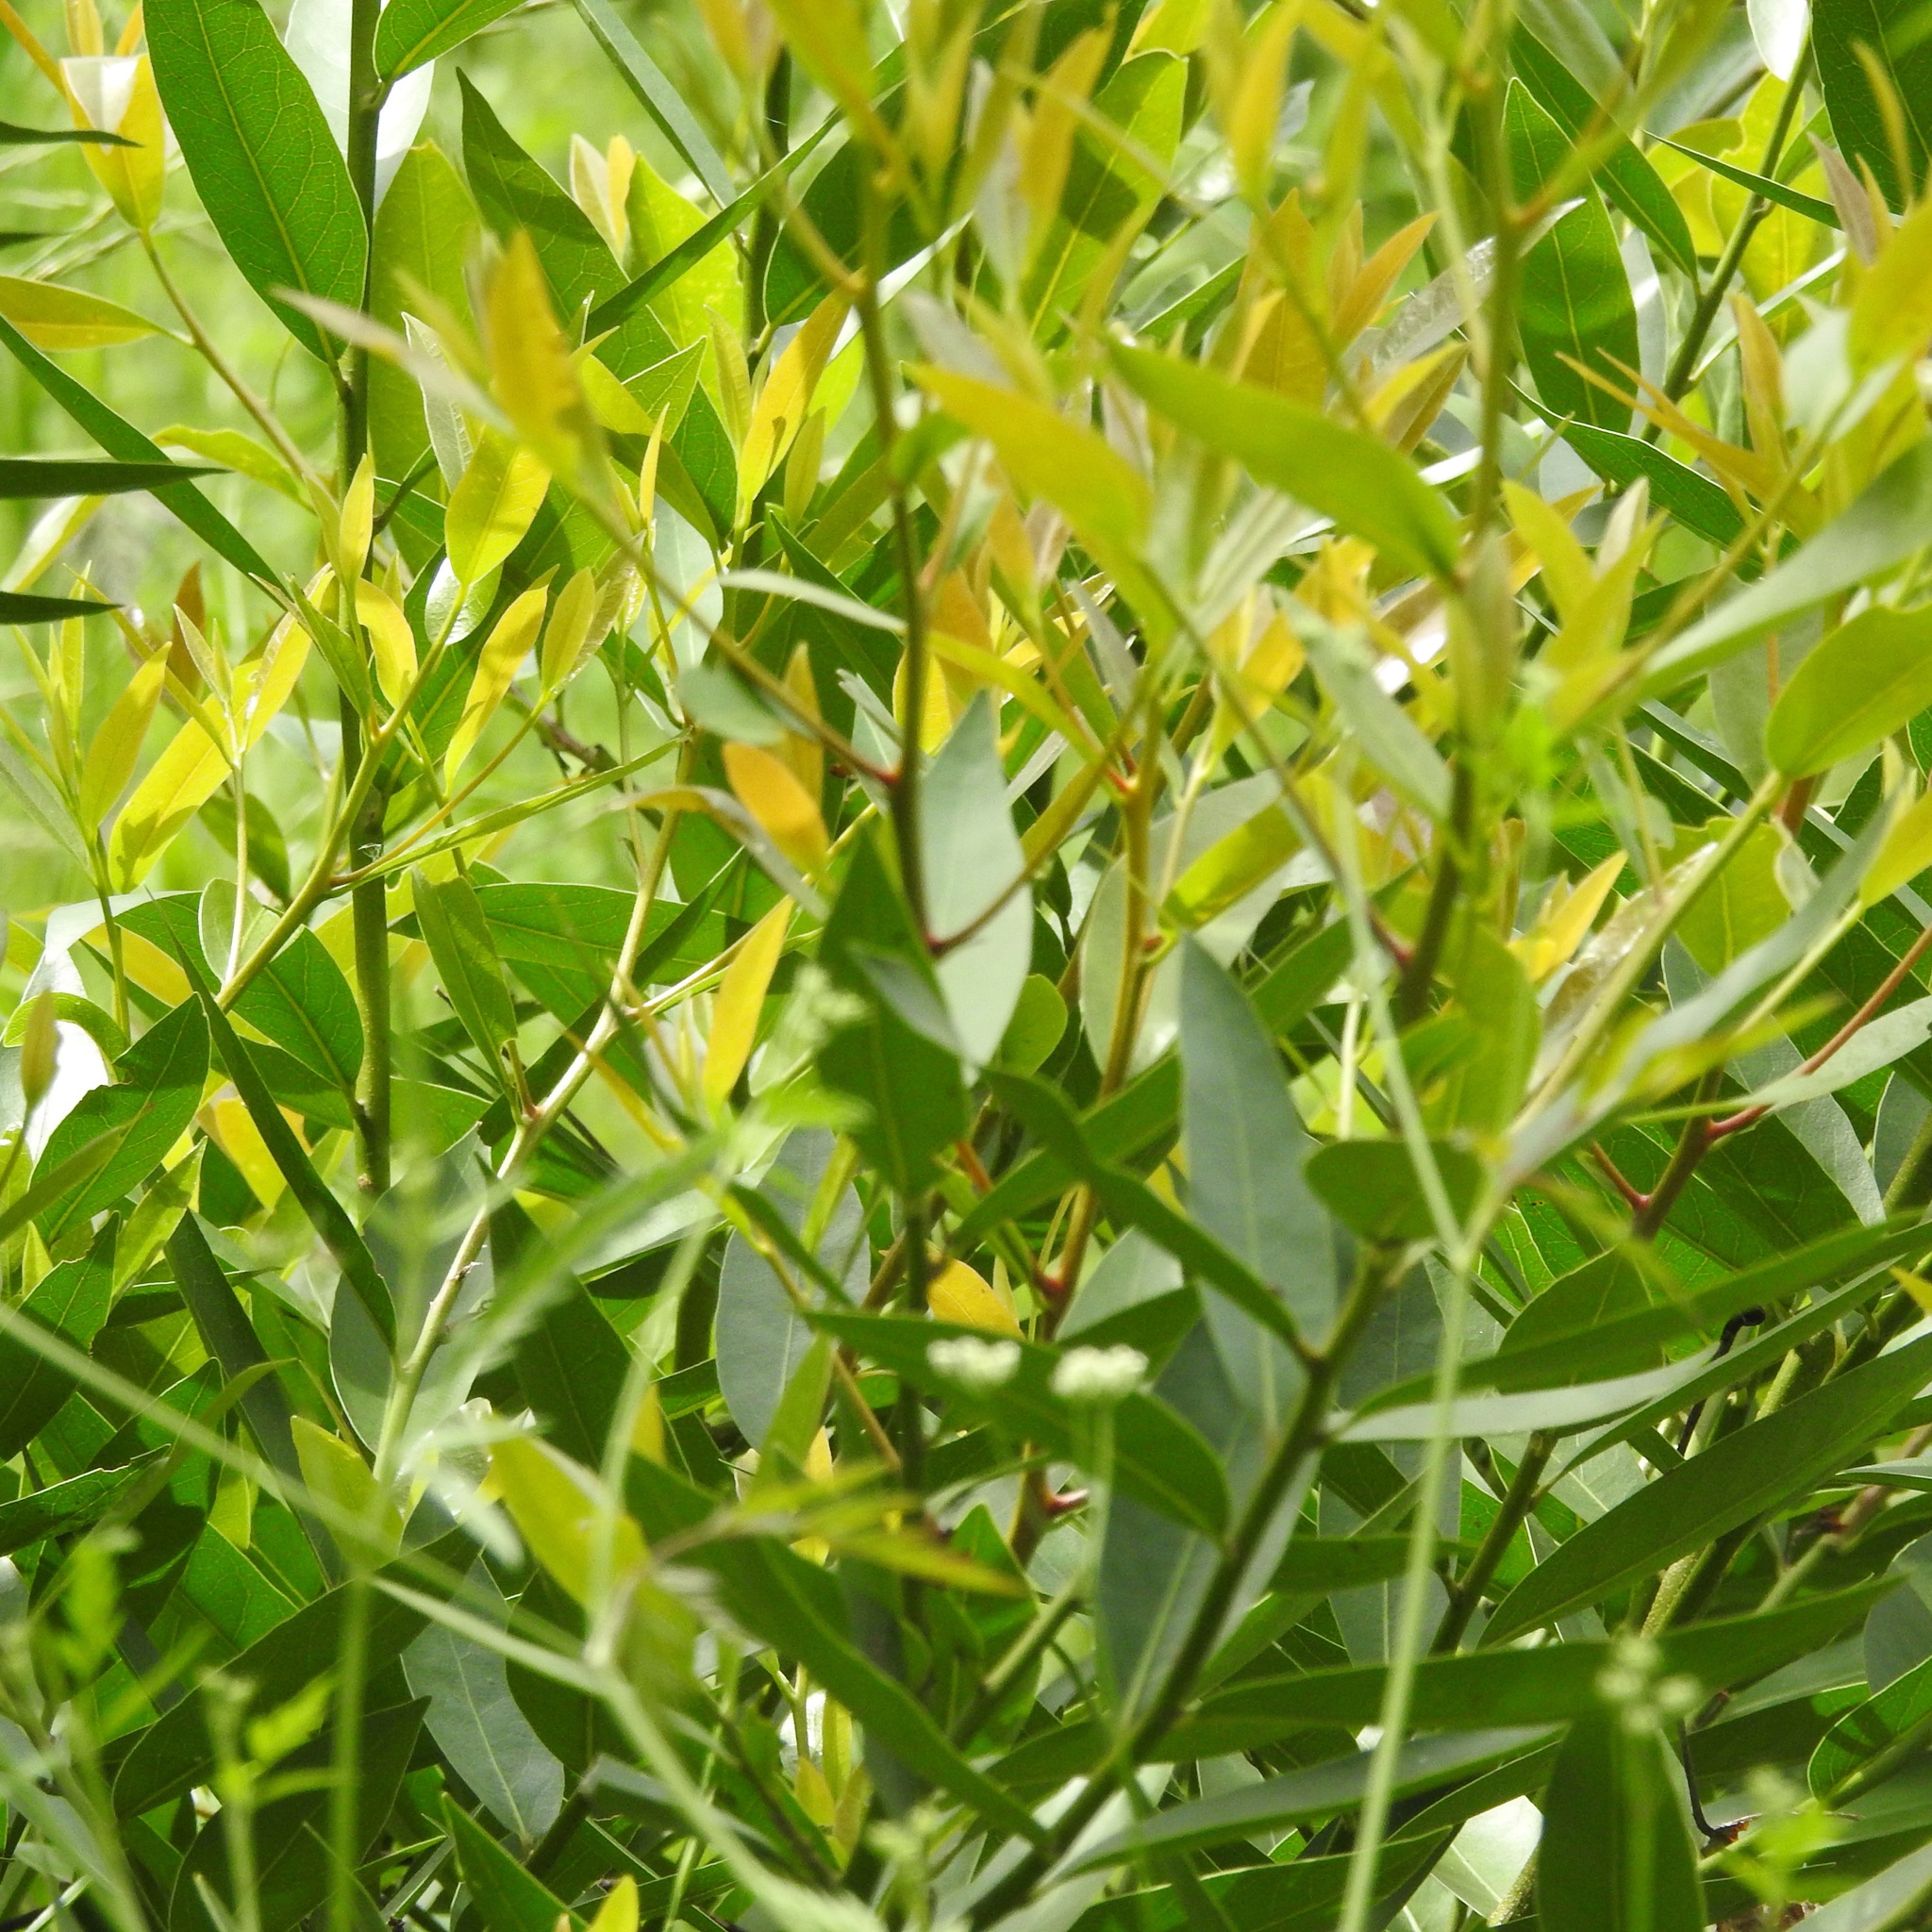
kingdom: Plantae
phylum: Tracheophyta
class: Magnoliopsida
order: Laurales
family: Lauraceae
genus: Umbellularia
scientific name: Umbellularia californica
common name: California bay
